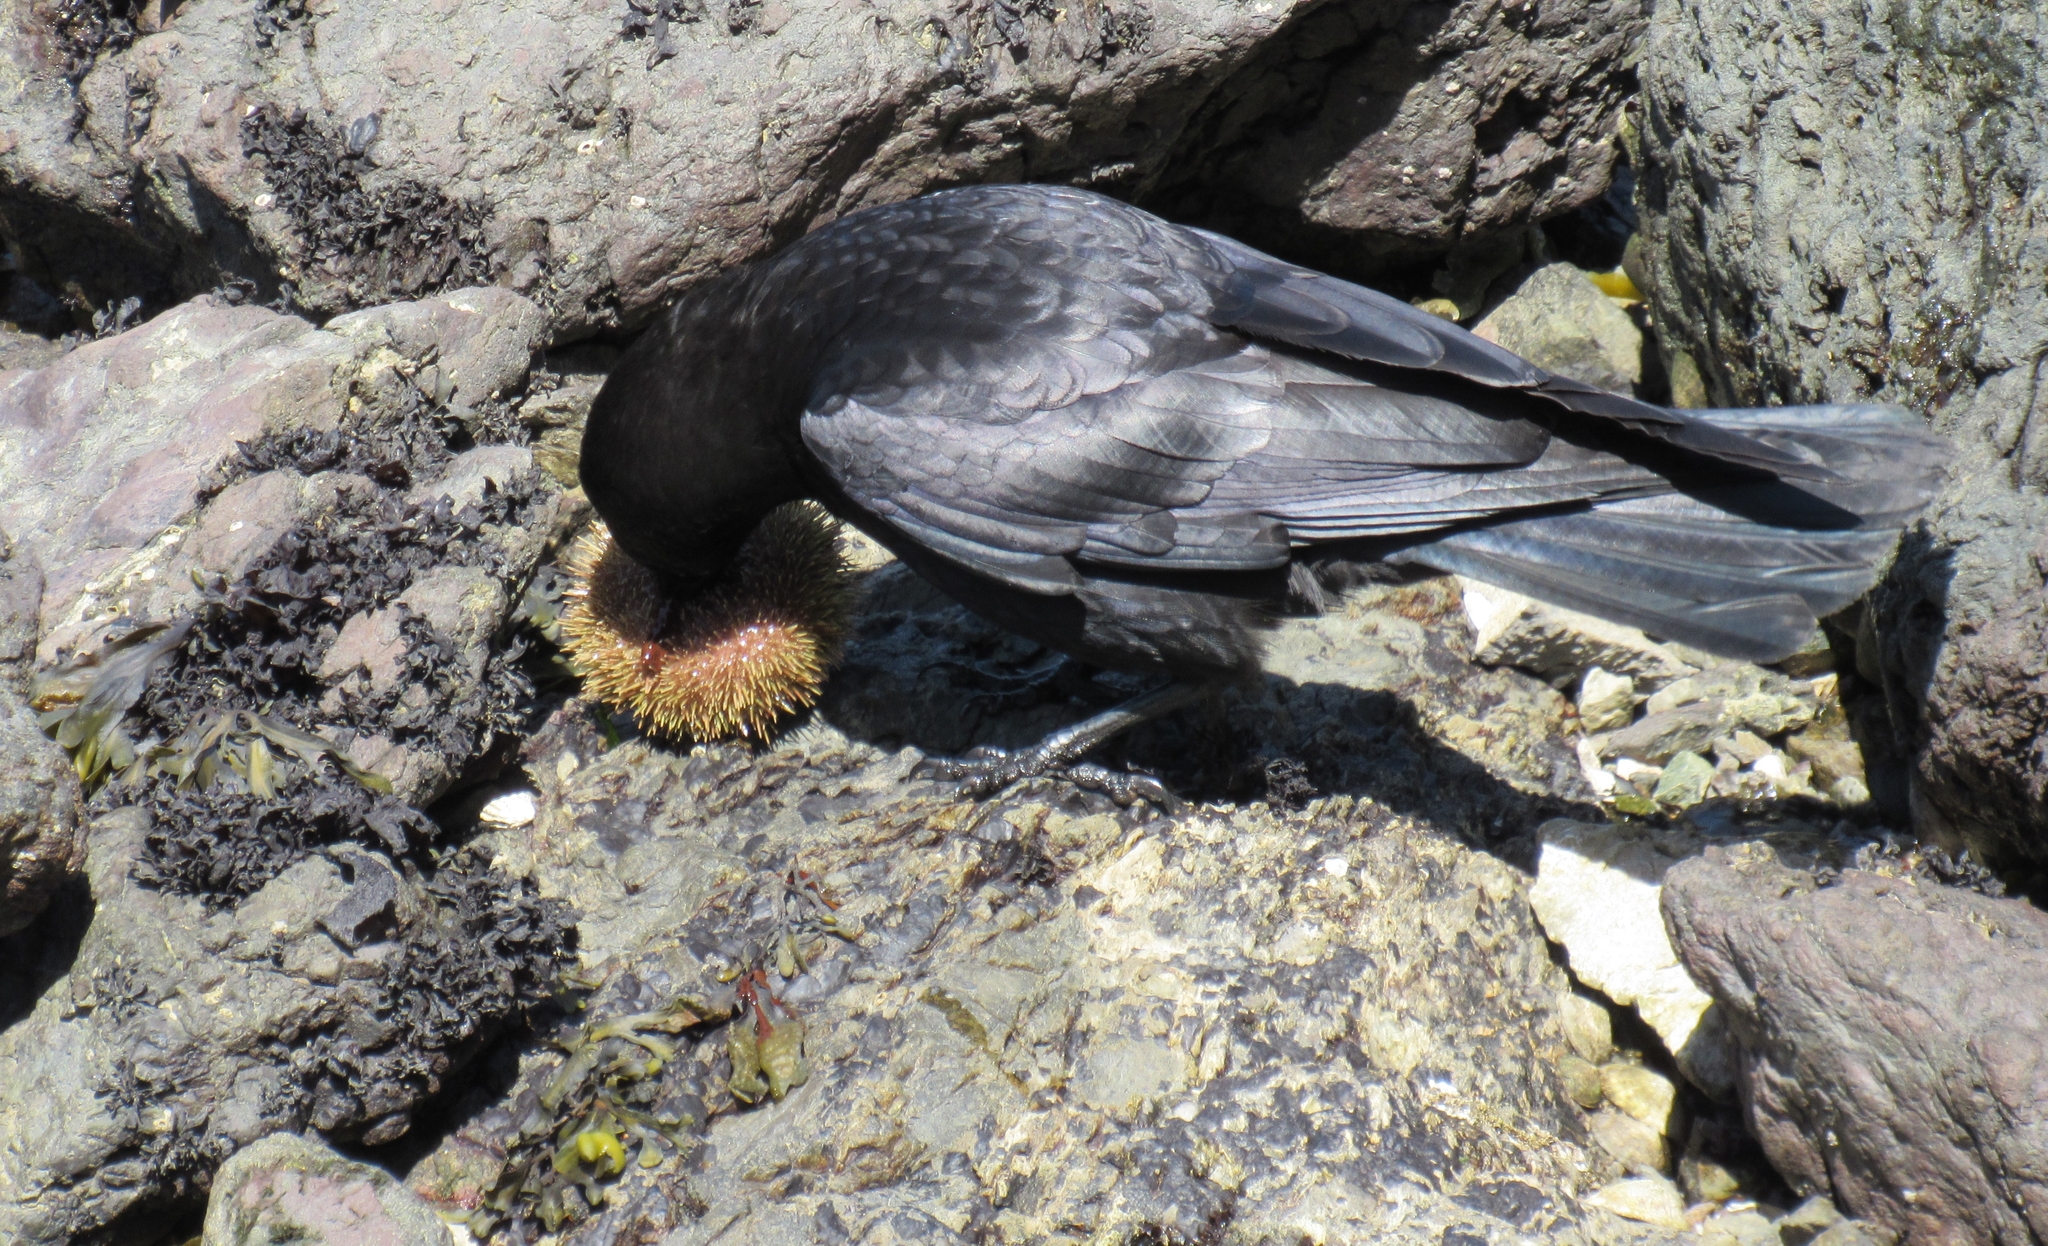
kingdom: Animalia
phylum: Chordata
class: Aves
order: Passeriformes
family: Corvidae
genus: Corvus
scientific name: Corvus brachyrhynchos
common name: American crow
